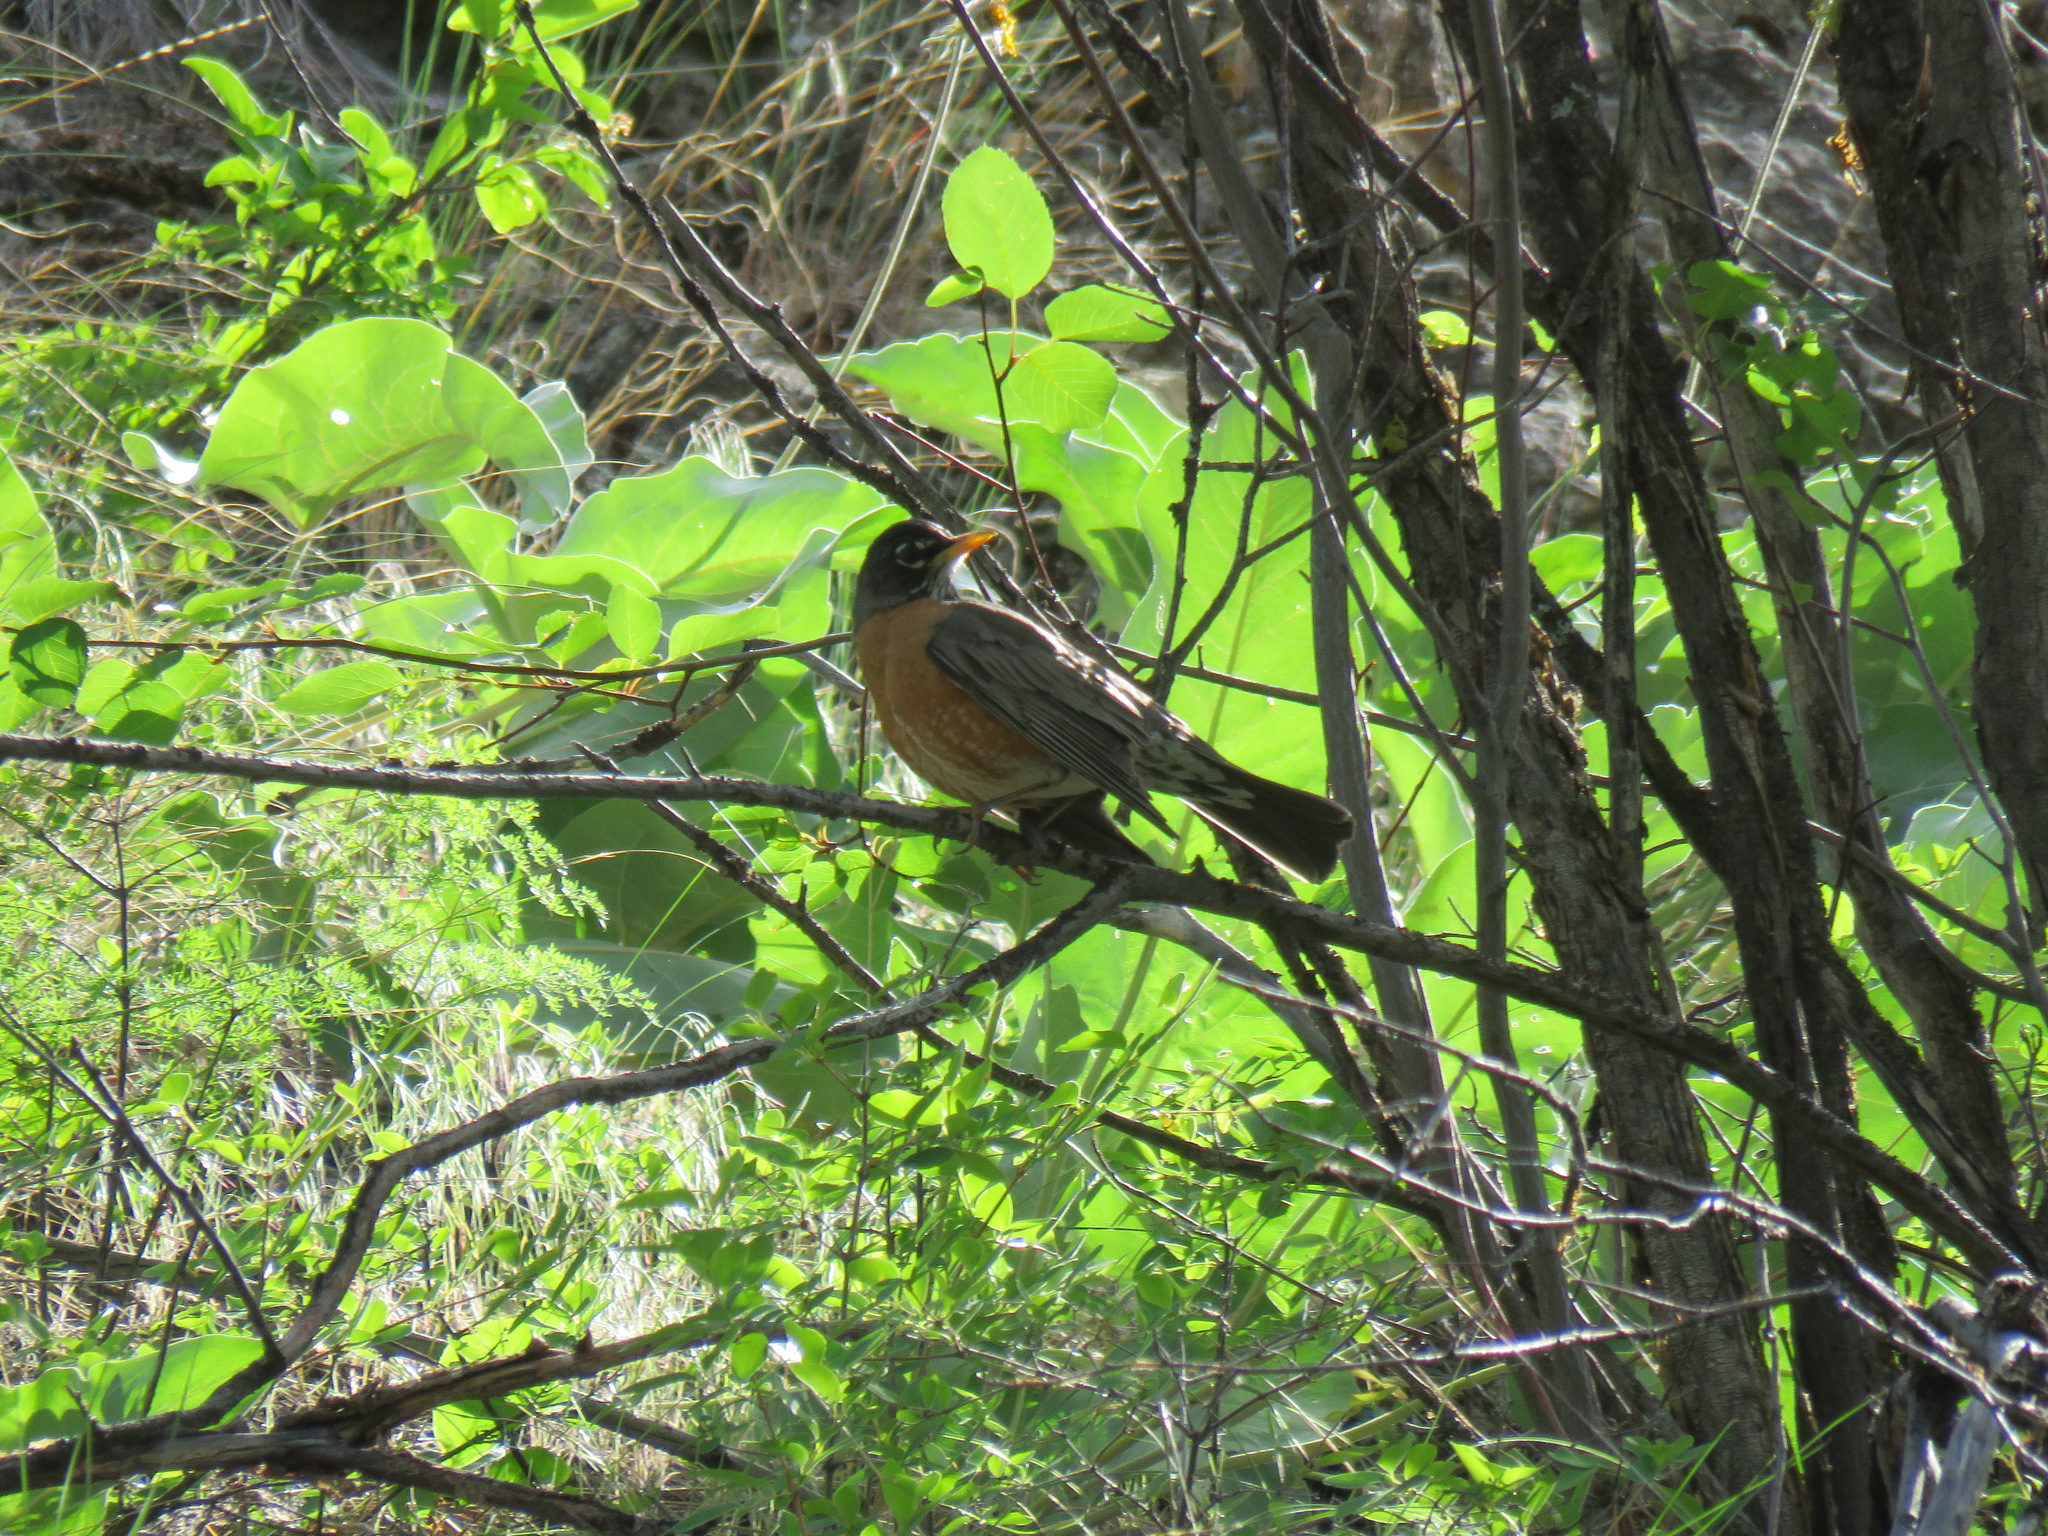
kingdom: Animalia
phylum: Chordata
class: Aves
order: Passeriformes
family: Turdidae
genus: Turdus
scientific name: Turdus migratorius
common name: American robin
